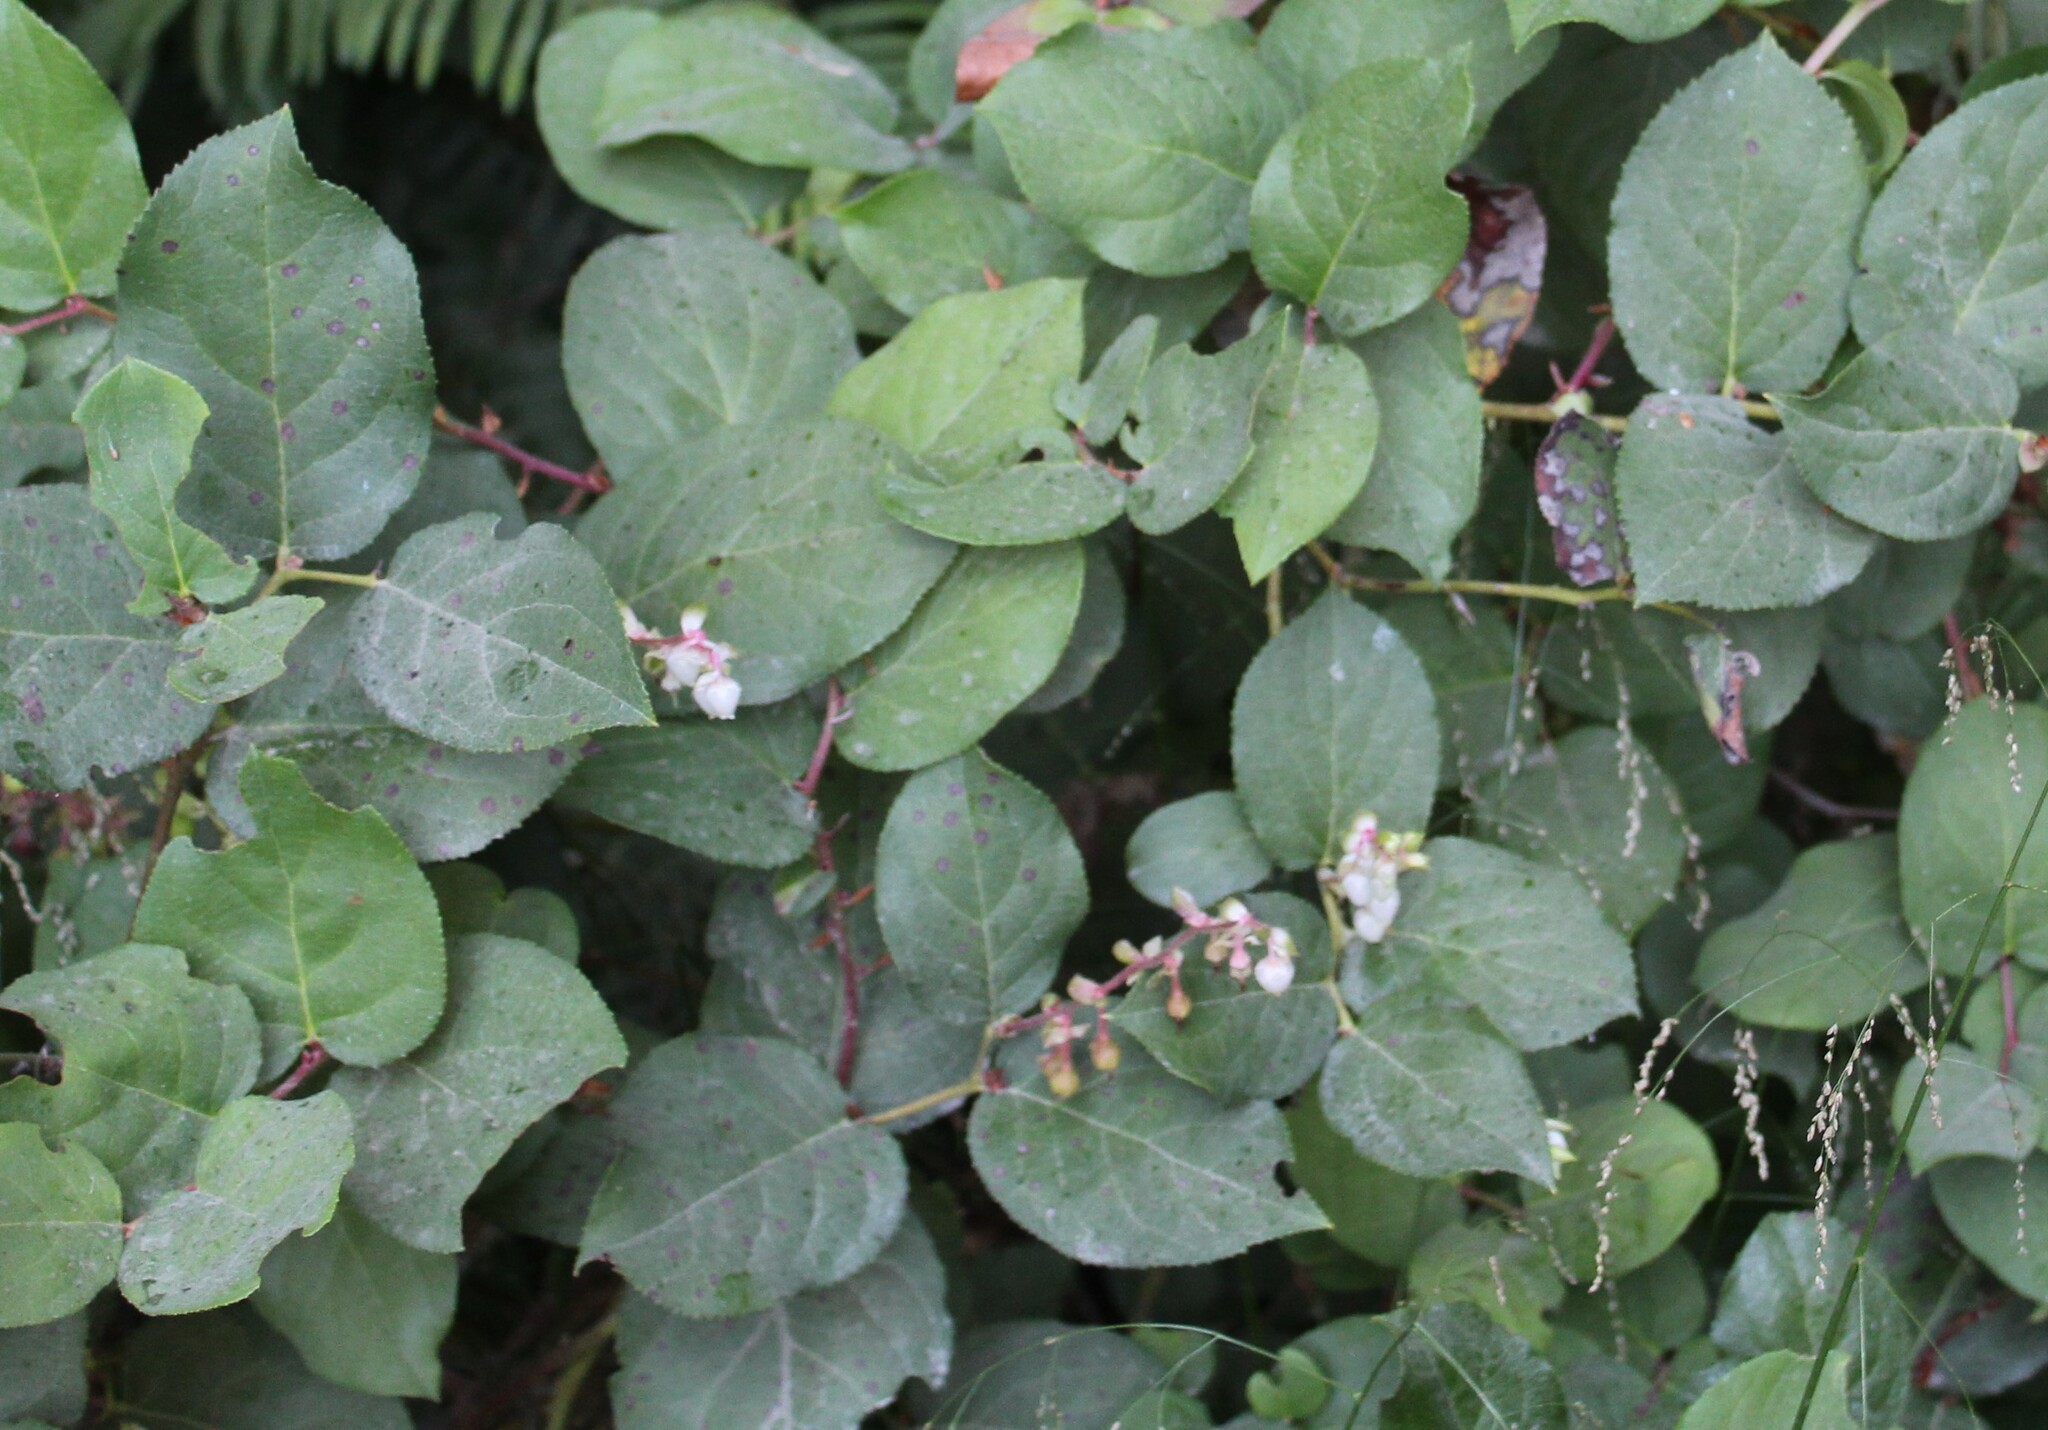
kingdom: Plantae
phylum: Tracheophyta
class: Magnoliopsida
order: Ericales
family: Ericaceae
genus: Gaultheria
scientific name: Gaultheria shallon
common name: Shallon
